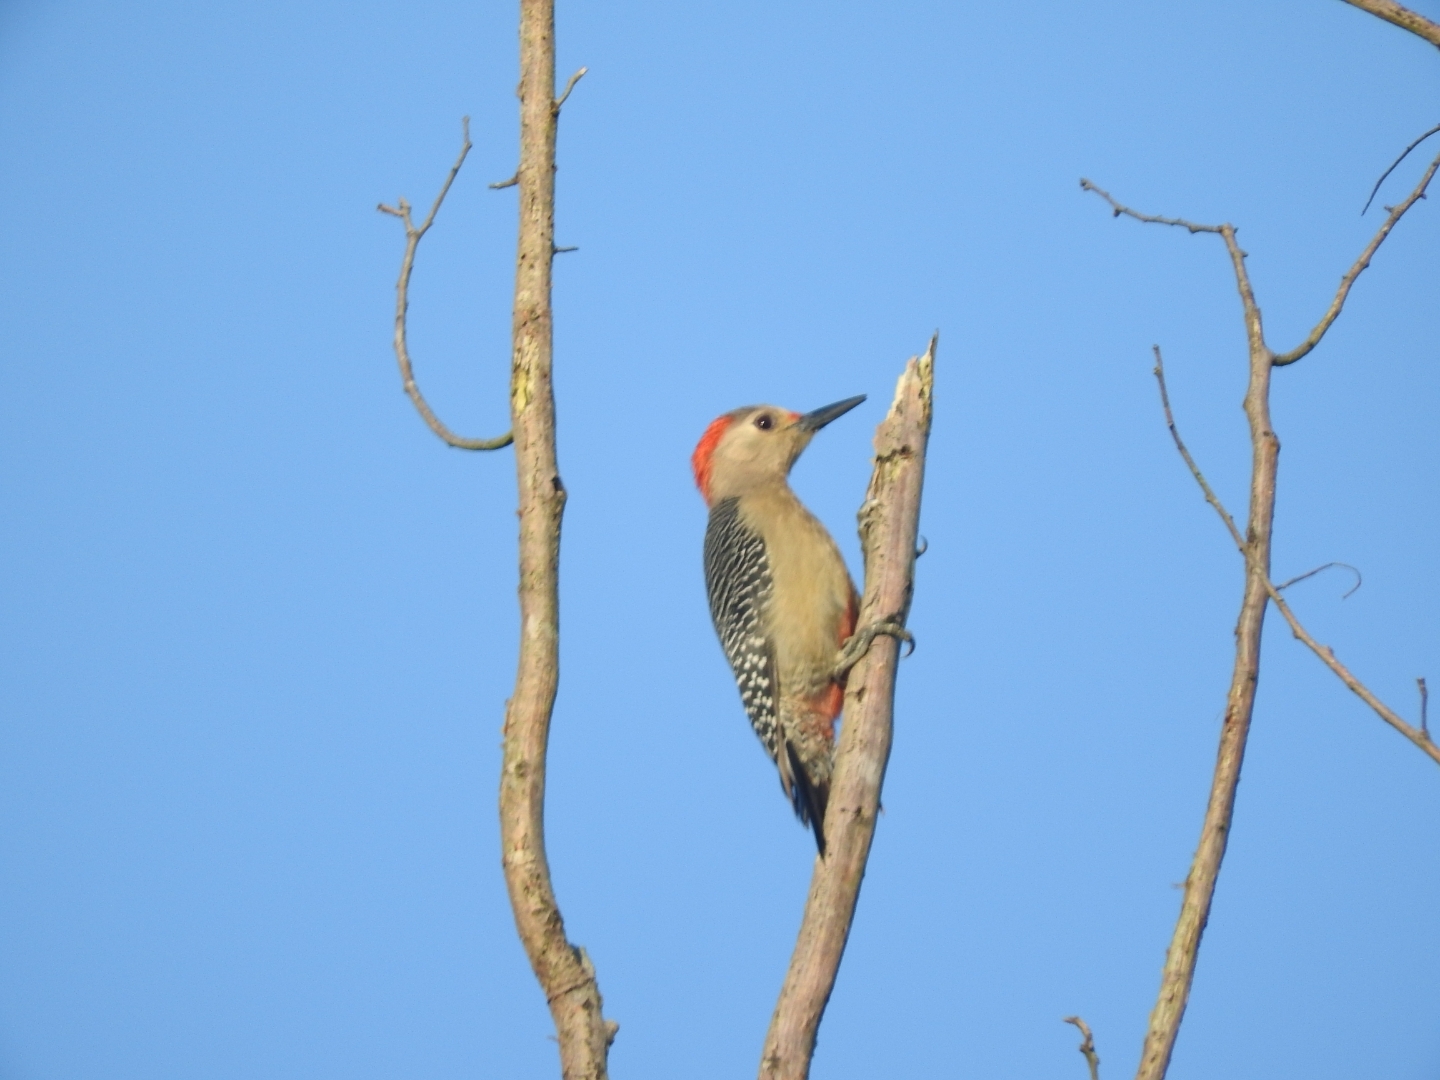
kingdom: Animalia
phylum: Chordata
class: Aves
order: Piciformes
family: Picidae
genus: Melanerpes
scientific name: Melanerpes aurifrons
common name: Golden-fronted woodpecker
